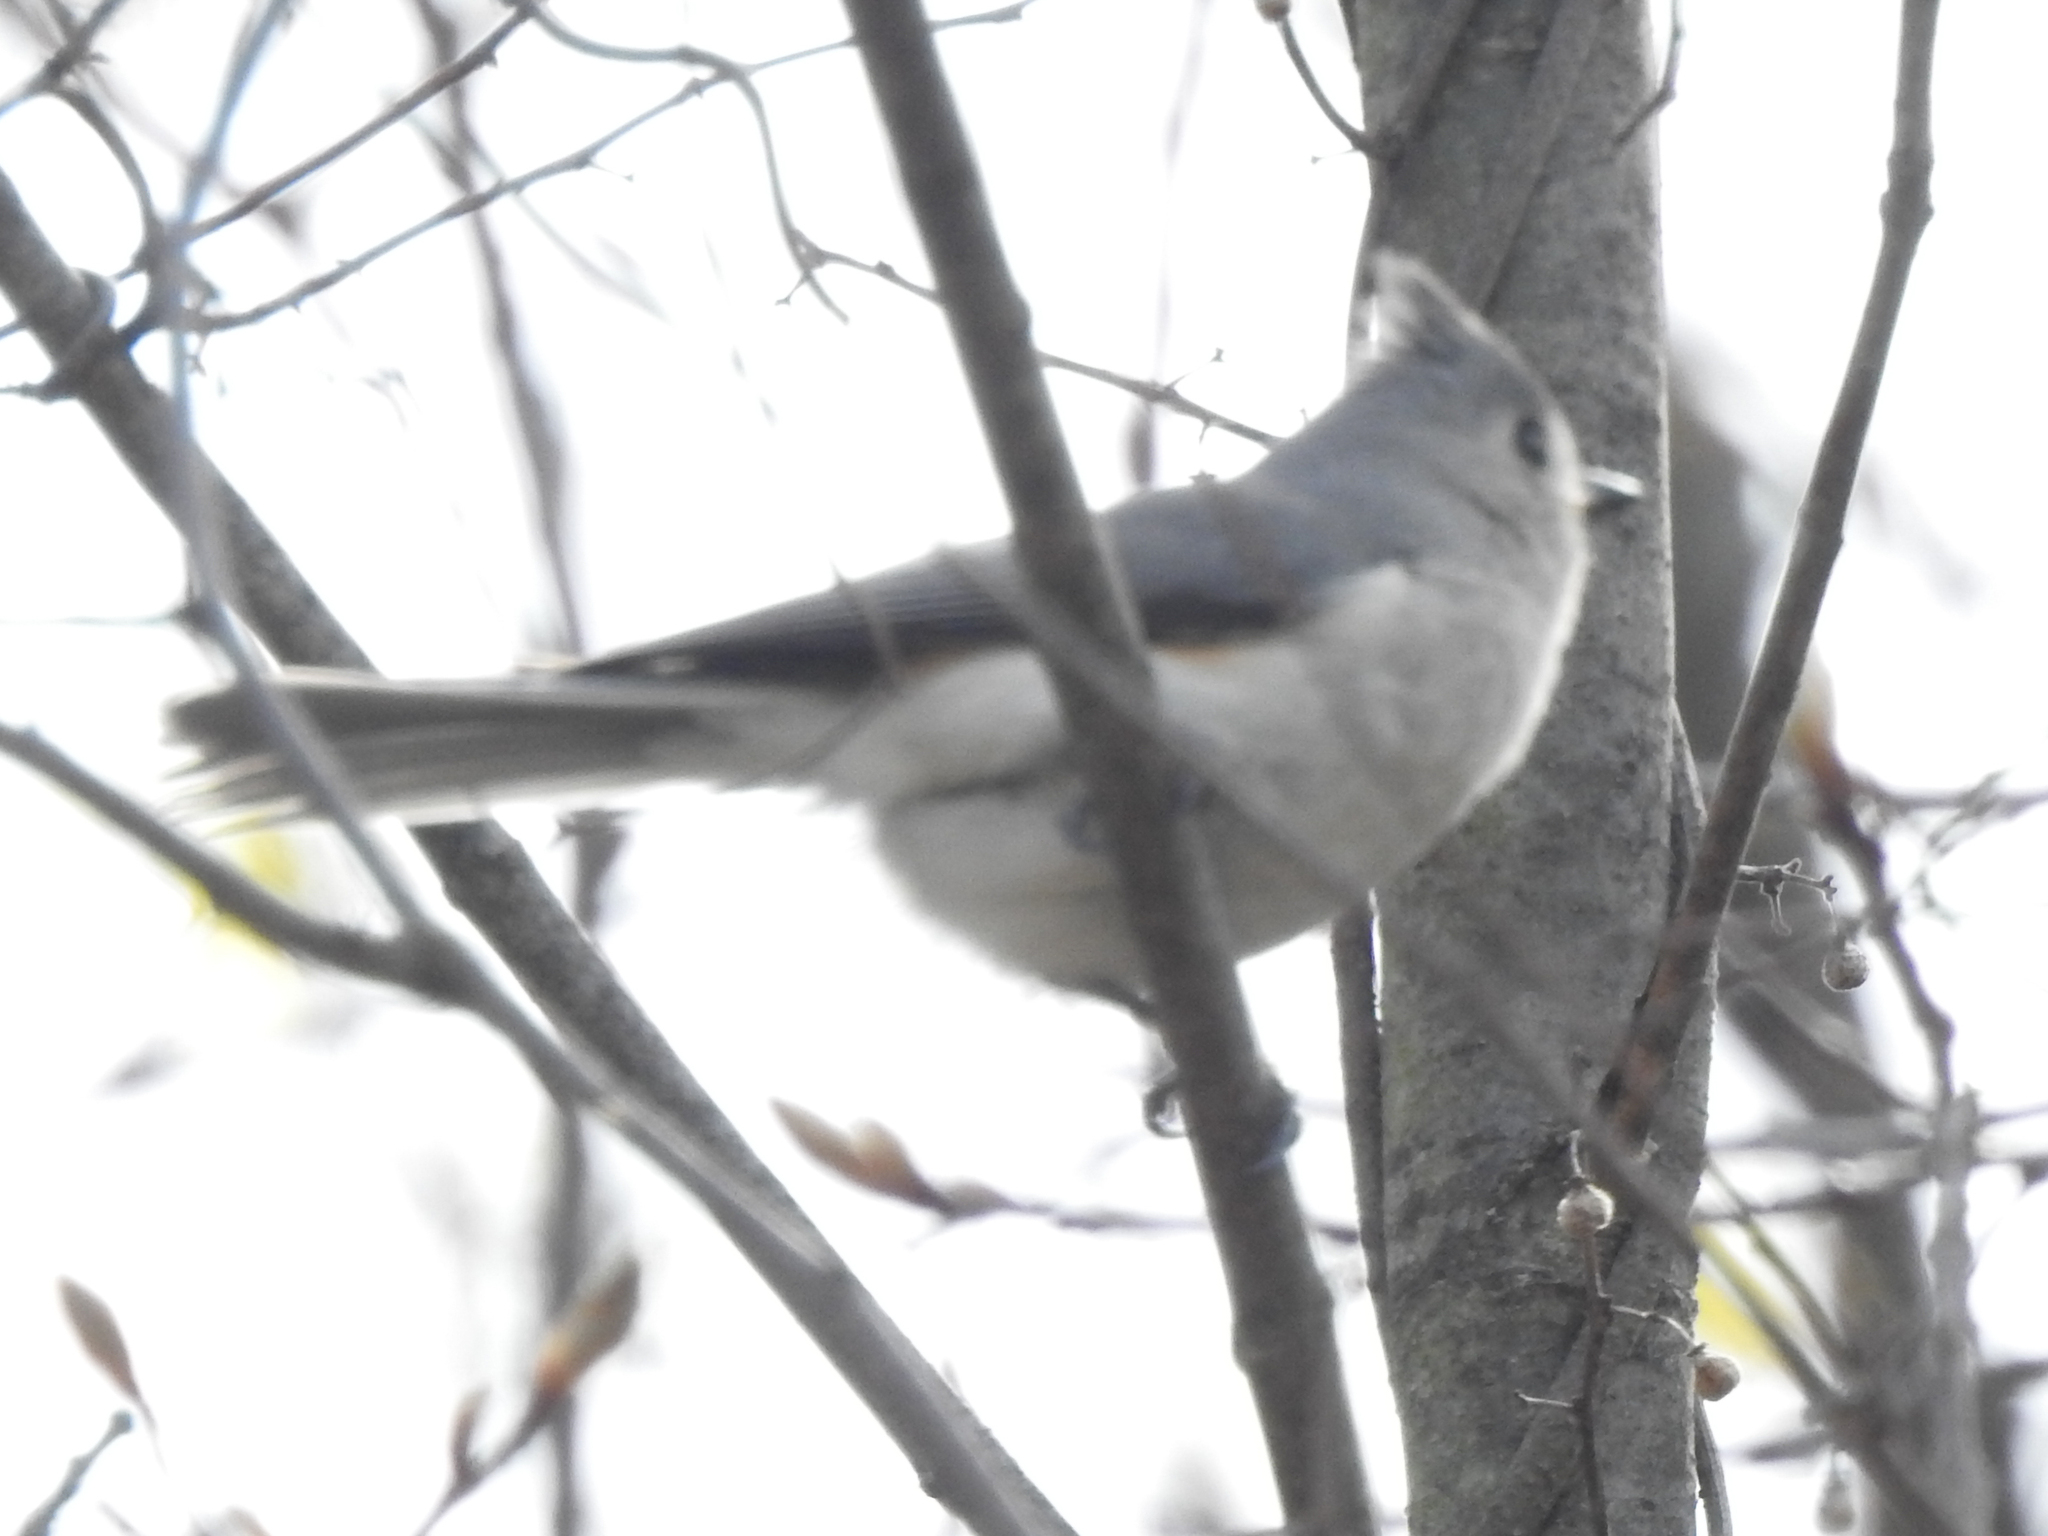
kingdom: Animalia
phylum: Chordata
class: Aves
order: Passeriformes
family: Paridae
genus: Baeolophus
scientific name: Baeolophus bicolor
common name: Tufted titmouse
